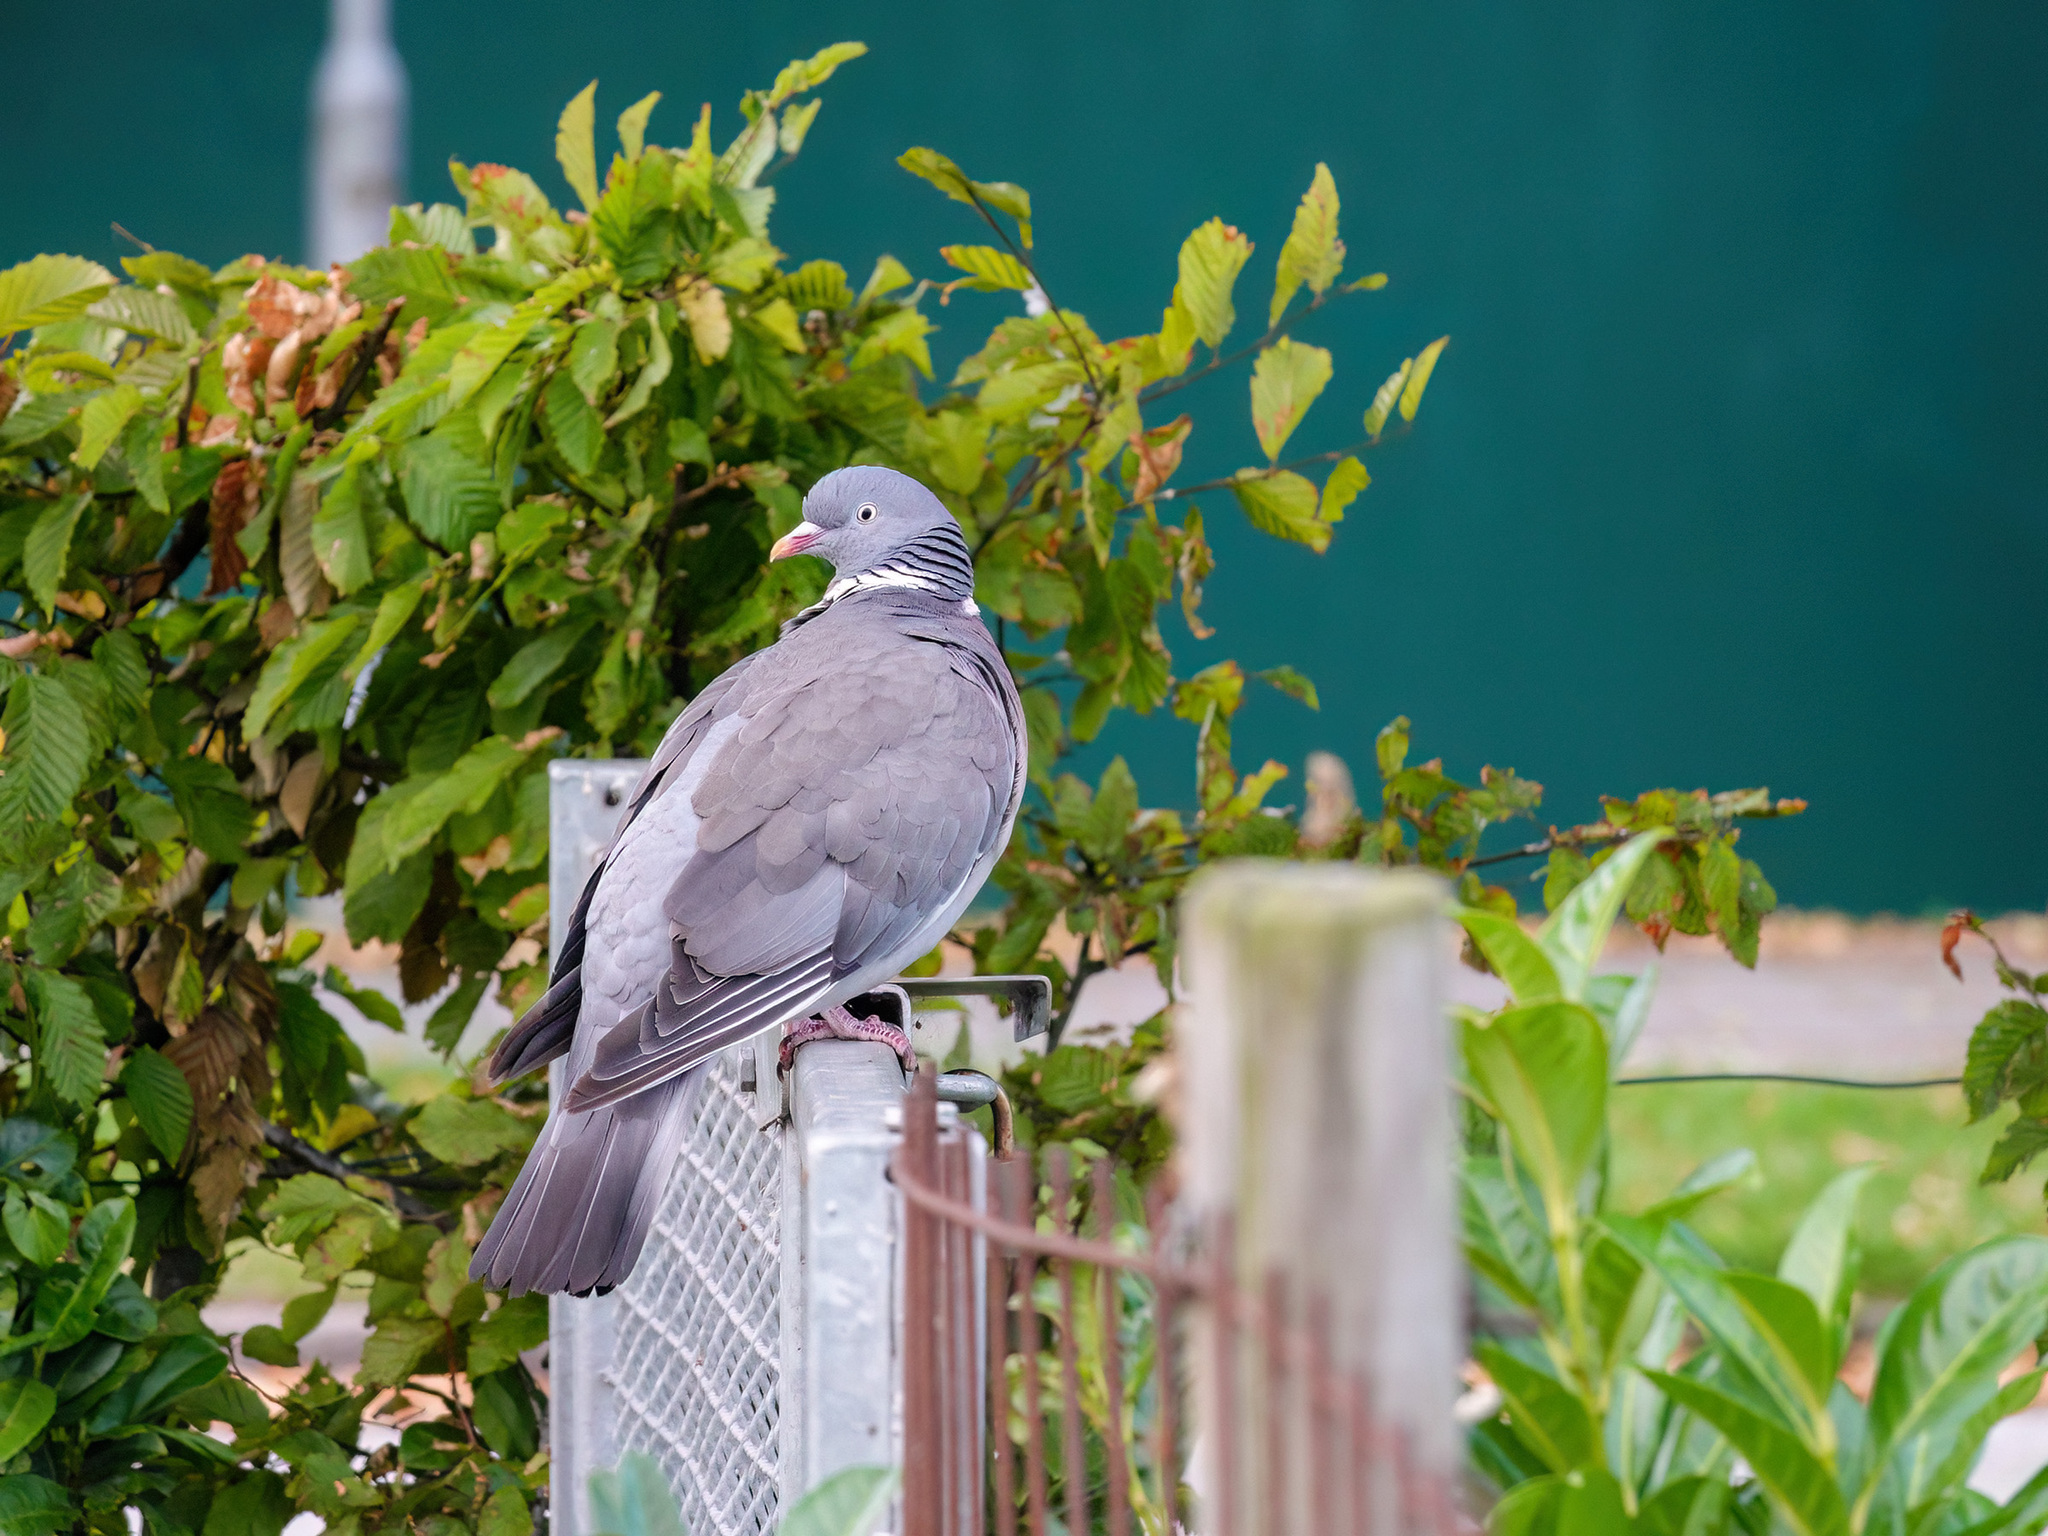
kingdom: Animalia
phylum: Chordata
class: Aves
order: Columbiformes
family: Columbidae
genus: Columba
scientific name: Columba palumbus
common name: Common wood pigeon
